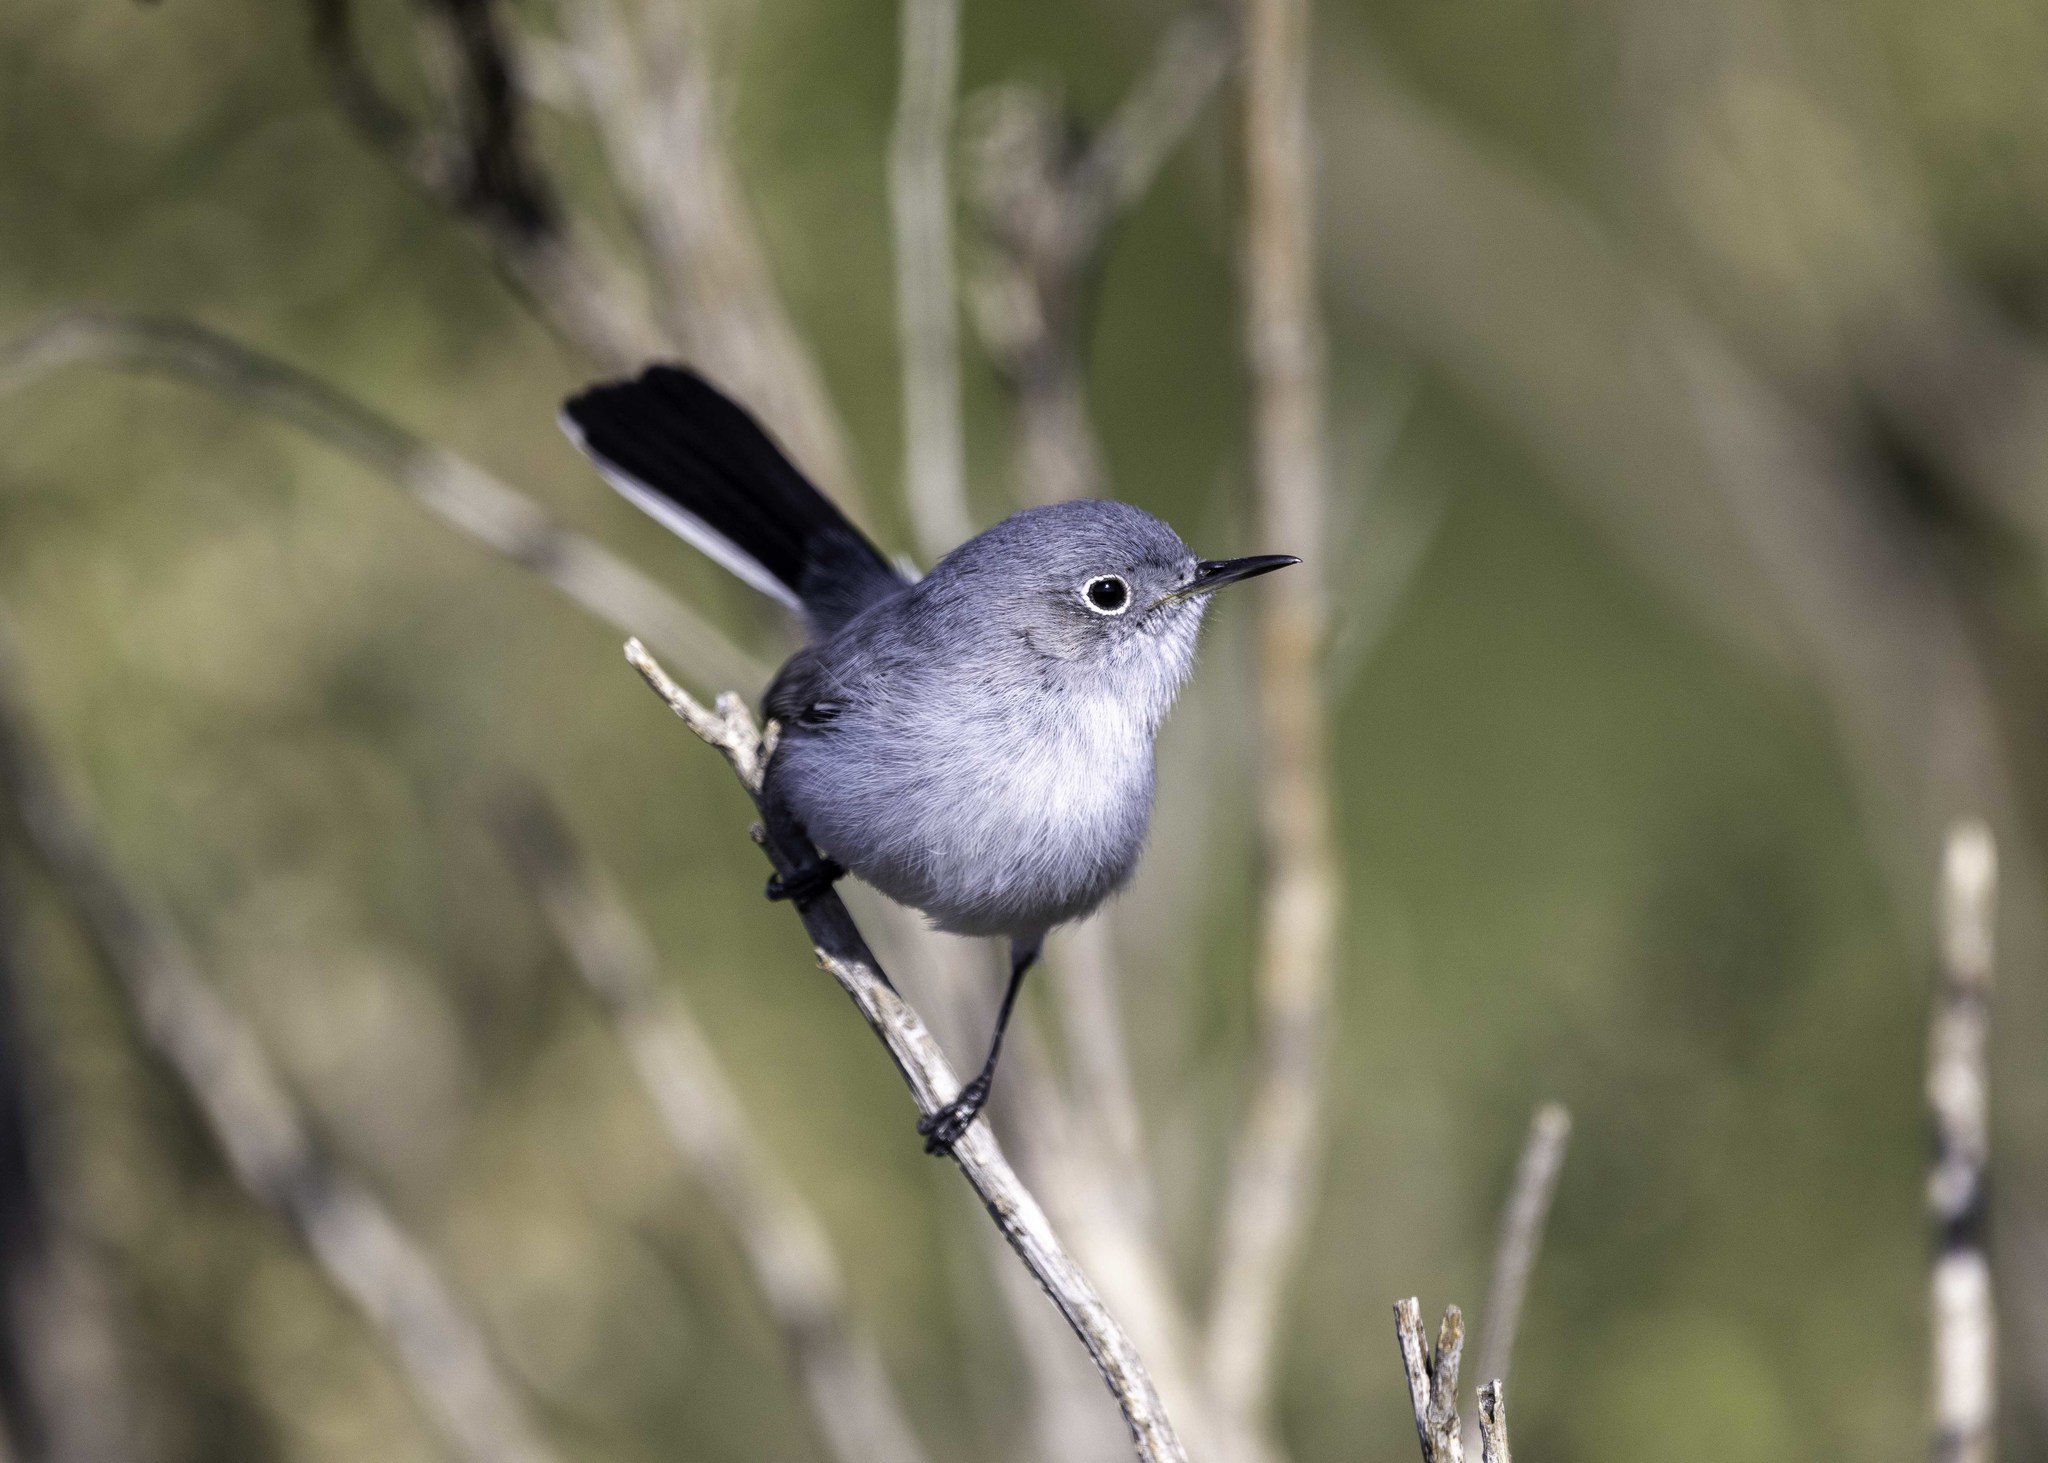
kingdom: Animalia
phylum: Chordata
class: Aves
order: Passeriformes
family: Polioptilidae
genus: Polioptila
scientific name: Polioptila caerulea
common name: Blue-gray gnatcatcher
